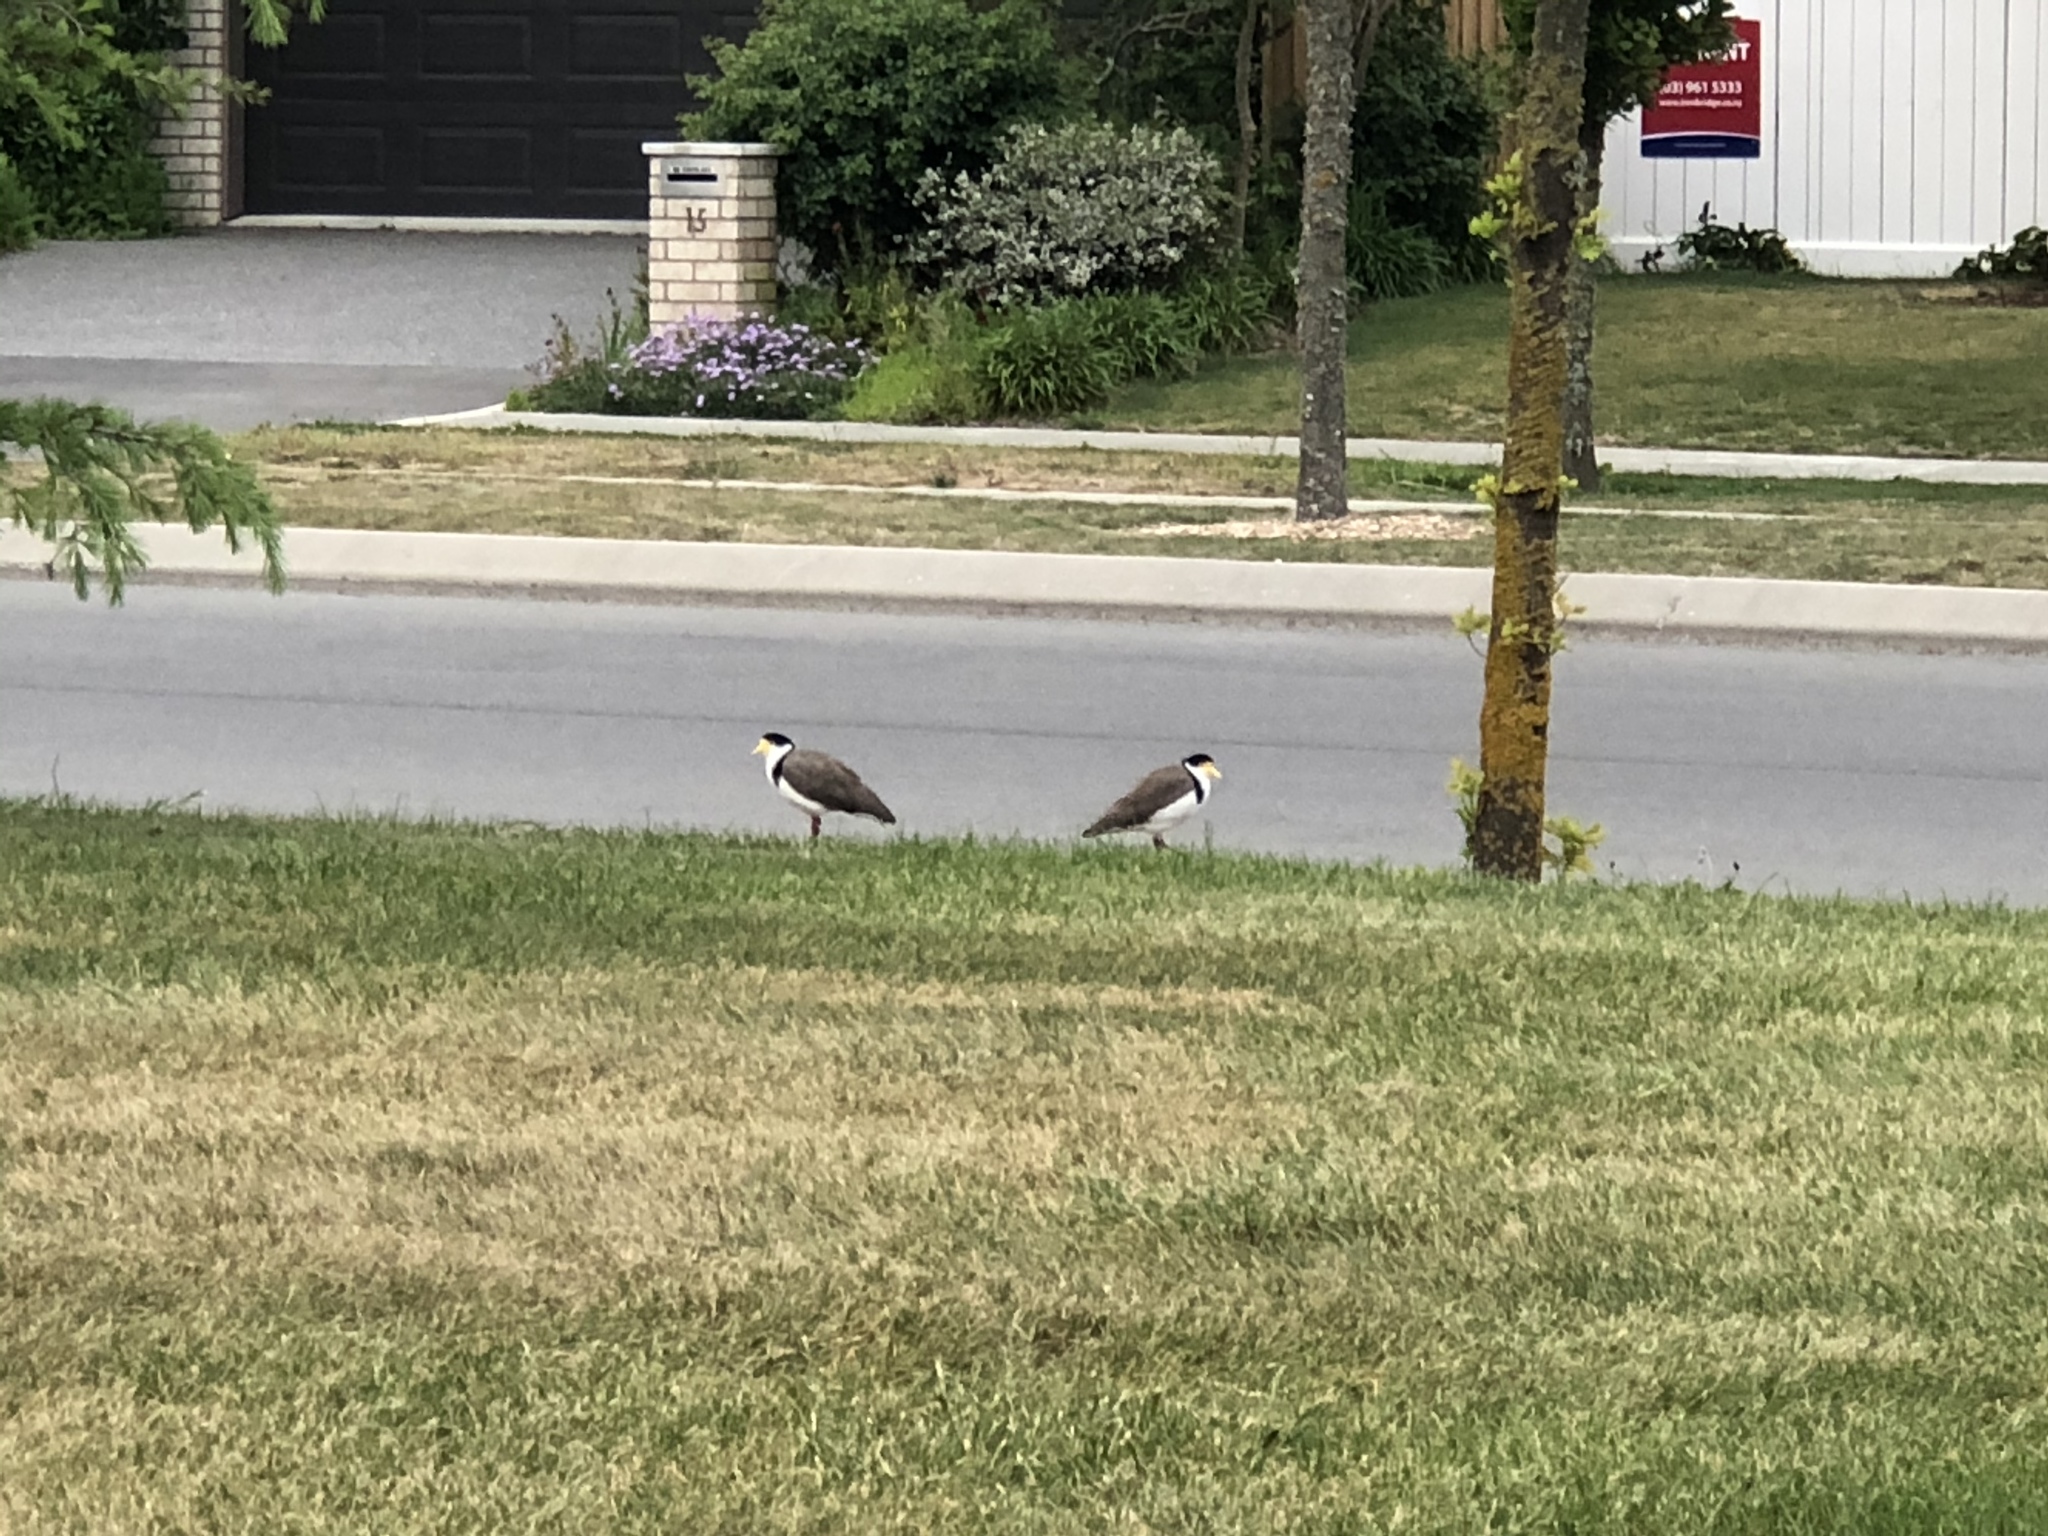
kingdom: Animalia
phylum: Chordata
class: Aves
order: Charadriiformes
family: Charadriidae
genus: Vanellus
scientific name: Vanellus miles
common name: Masked lapwing
